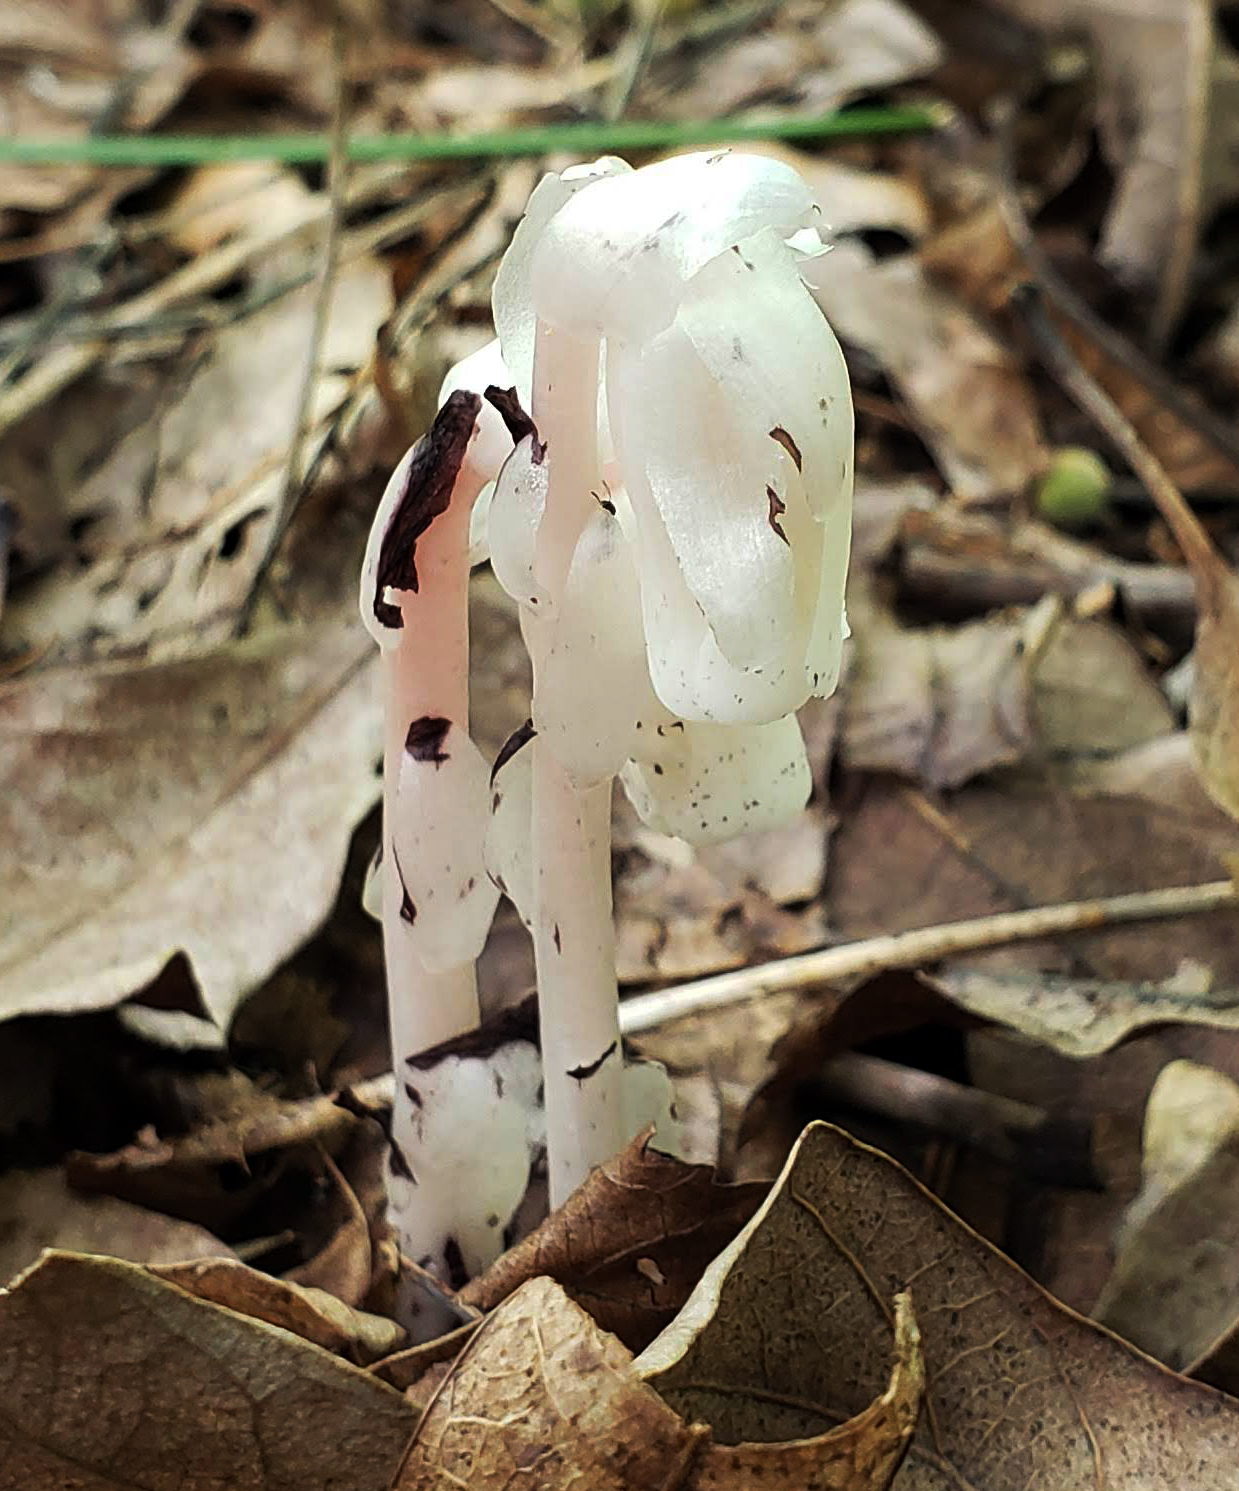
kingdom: Plantae
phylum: Tracheophyta
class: Magnoliopsida
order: Ericales
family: Ericaceae
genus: Monotropa
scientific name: Monotropa uniflora
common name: Convulsion root
